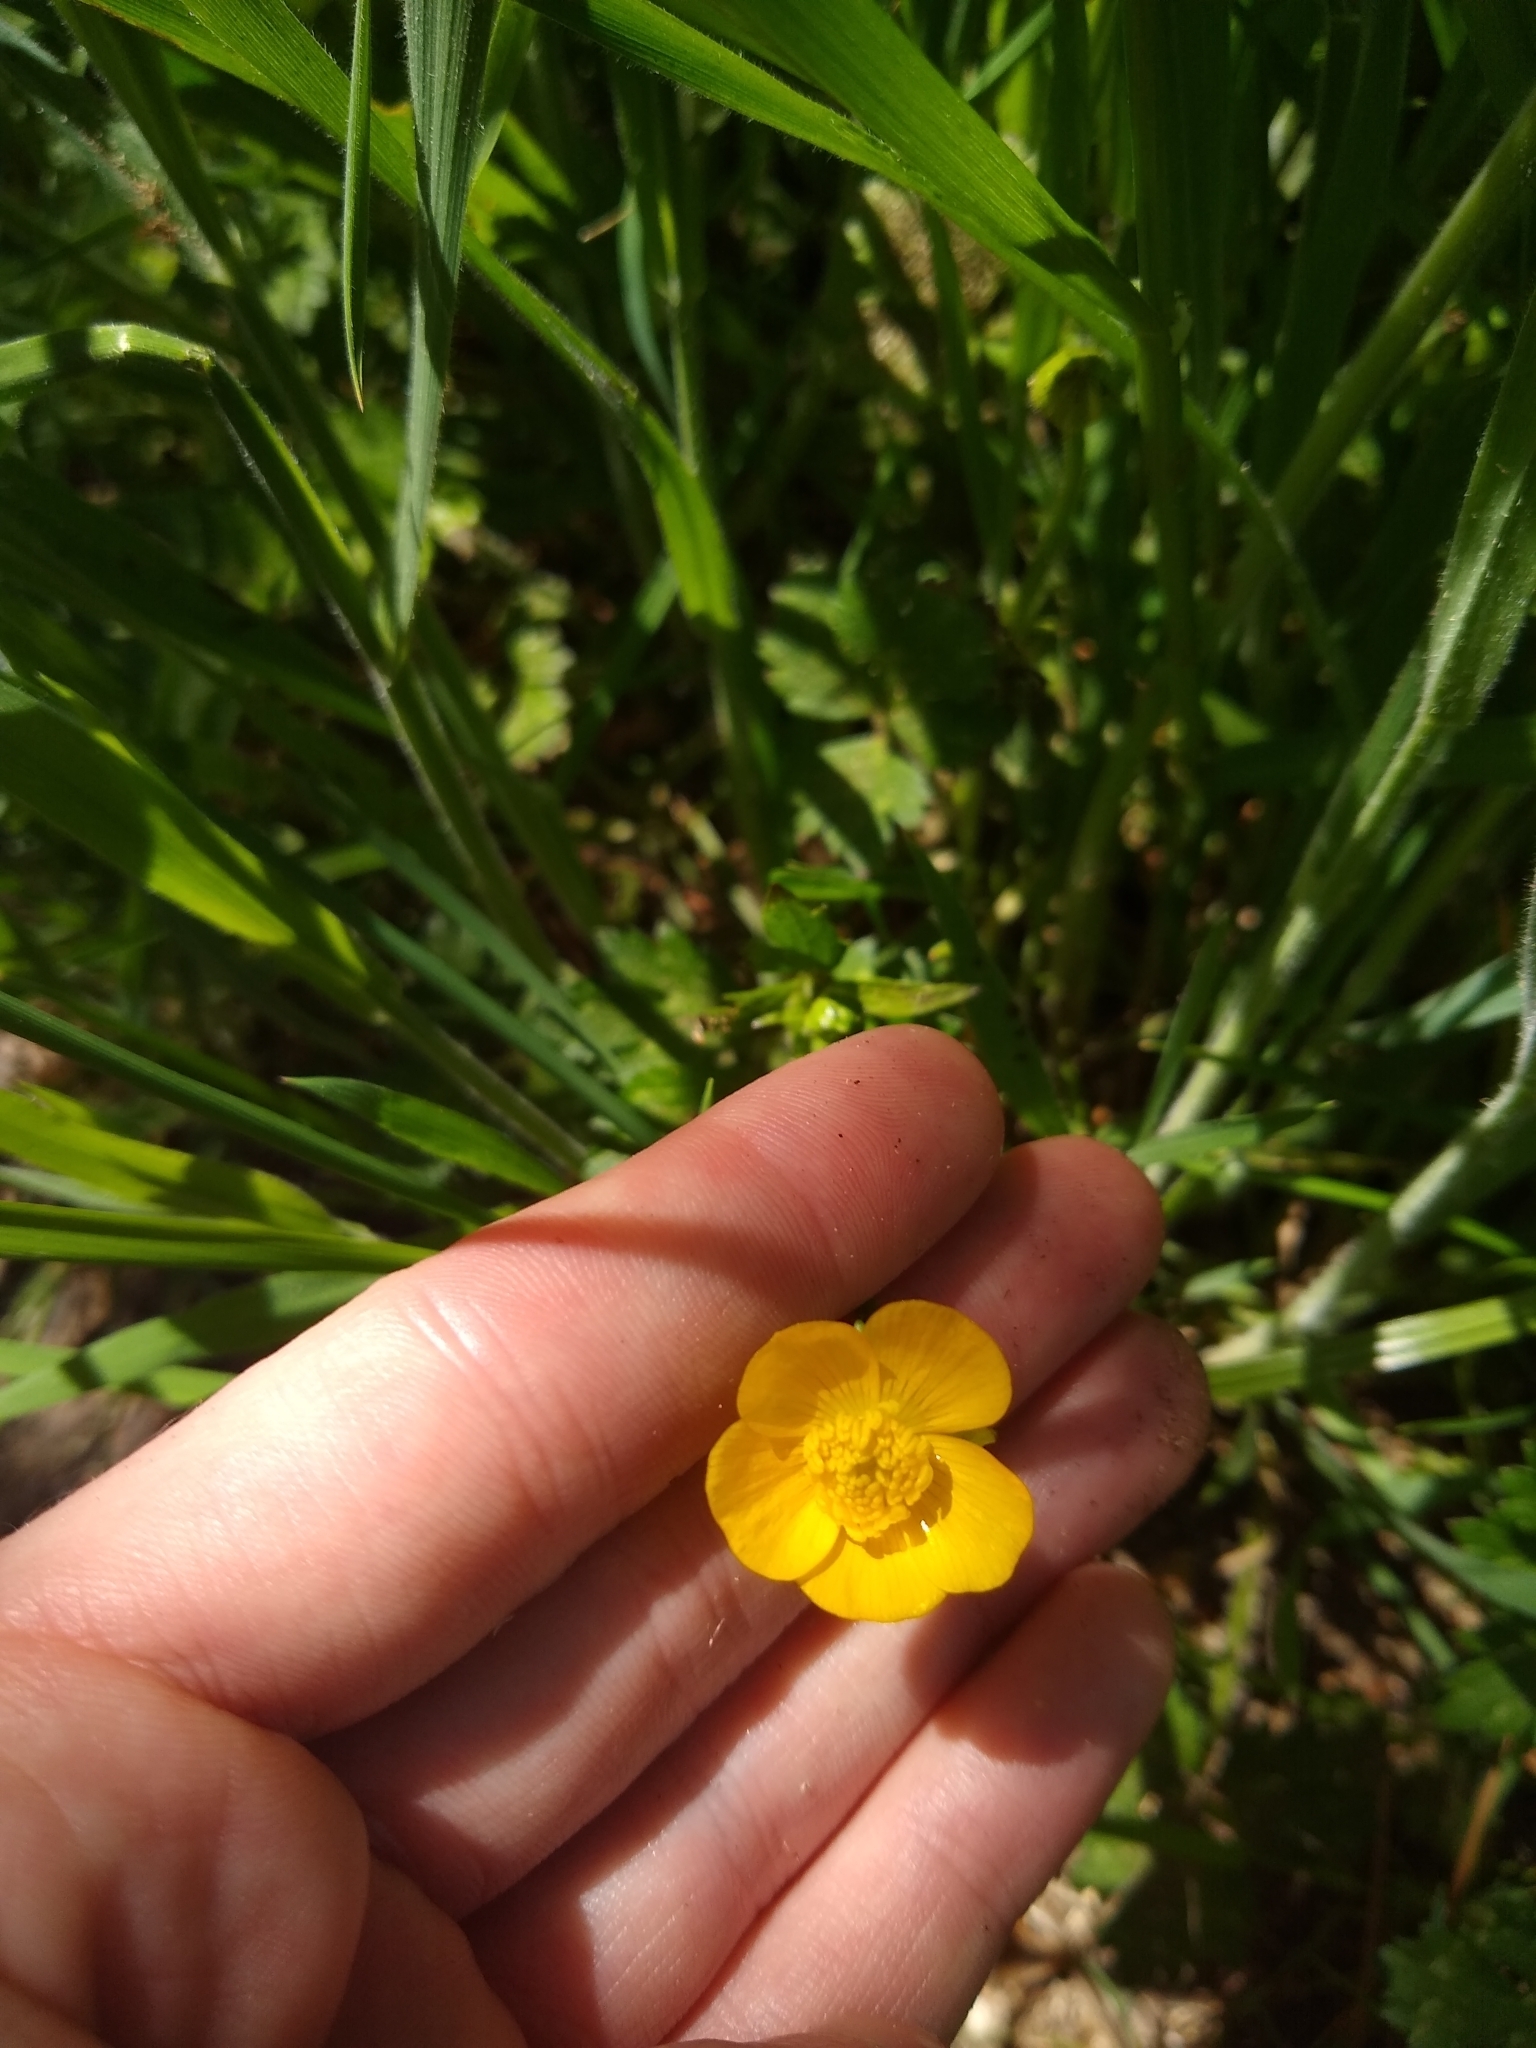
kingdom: Plantae
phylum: Tracheophyta
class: Magnoliopsida
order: Ranunculales
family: Ranunculaceae
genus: Ranunculus
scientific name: Ranunculus repens
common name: Creeping buttercup
